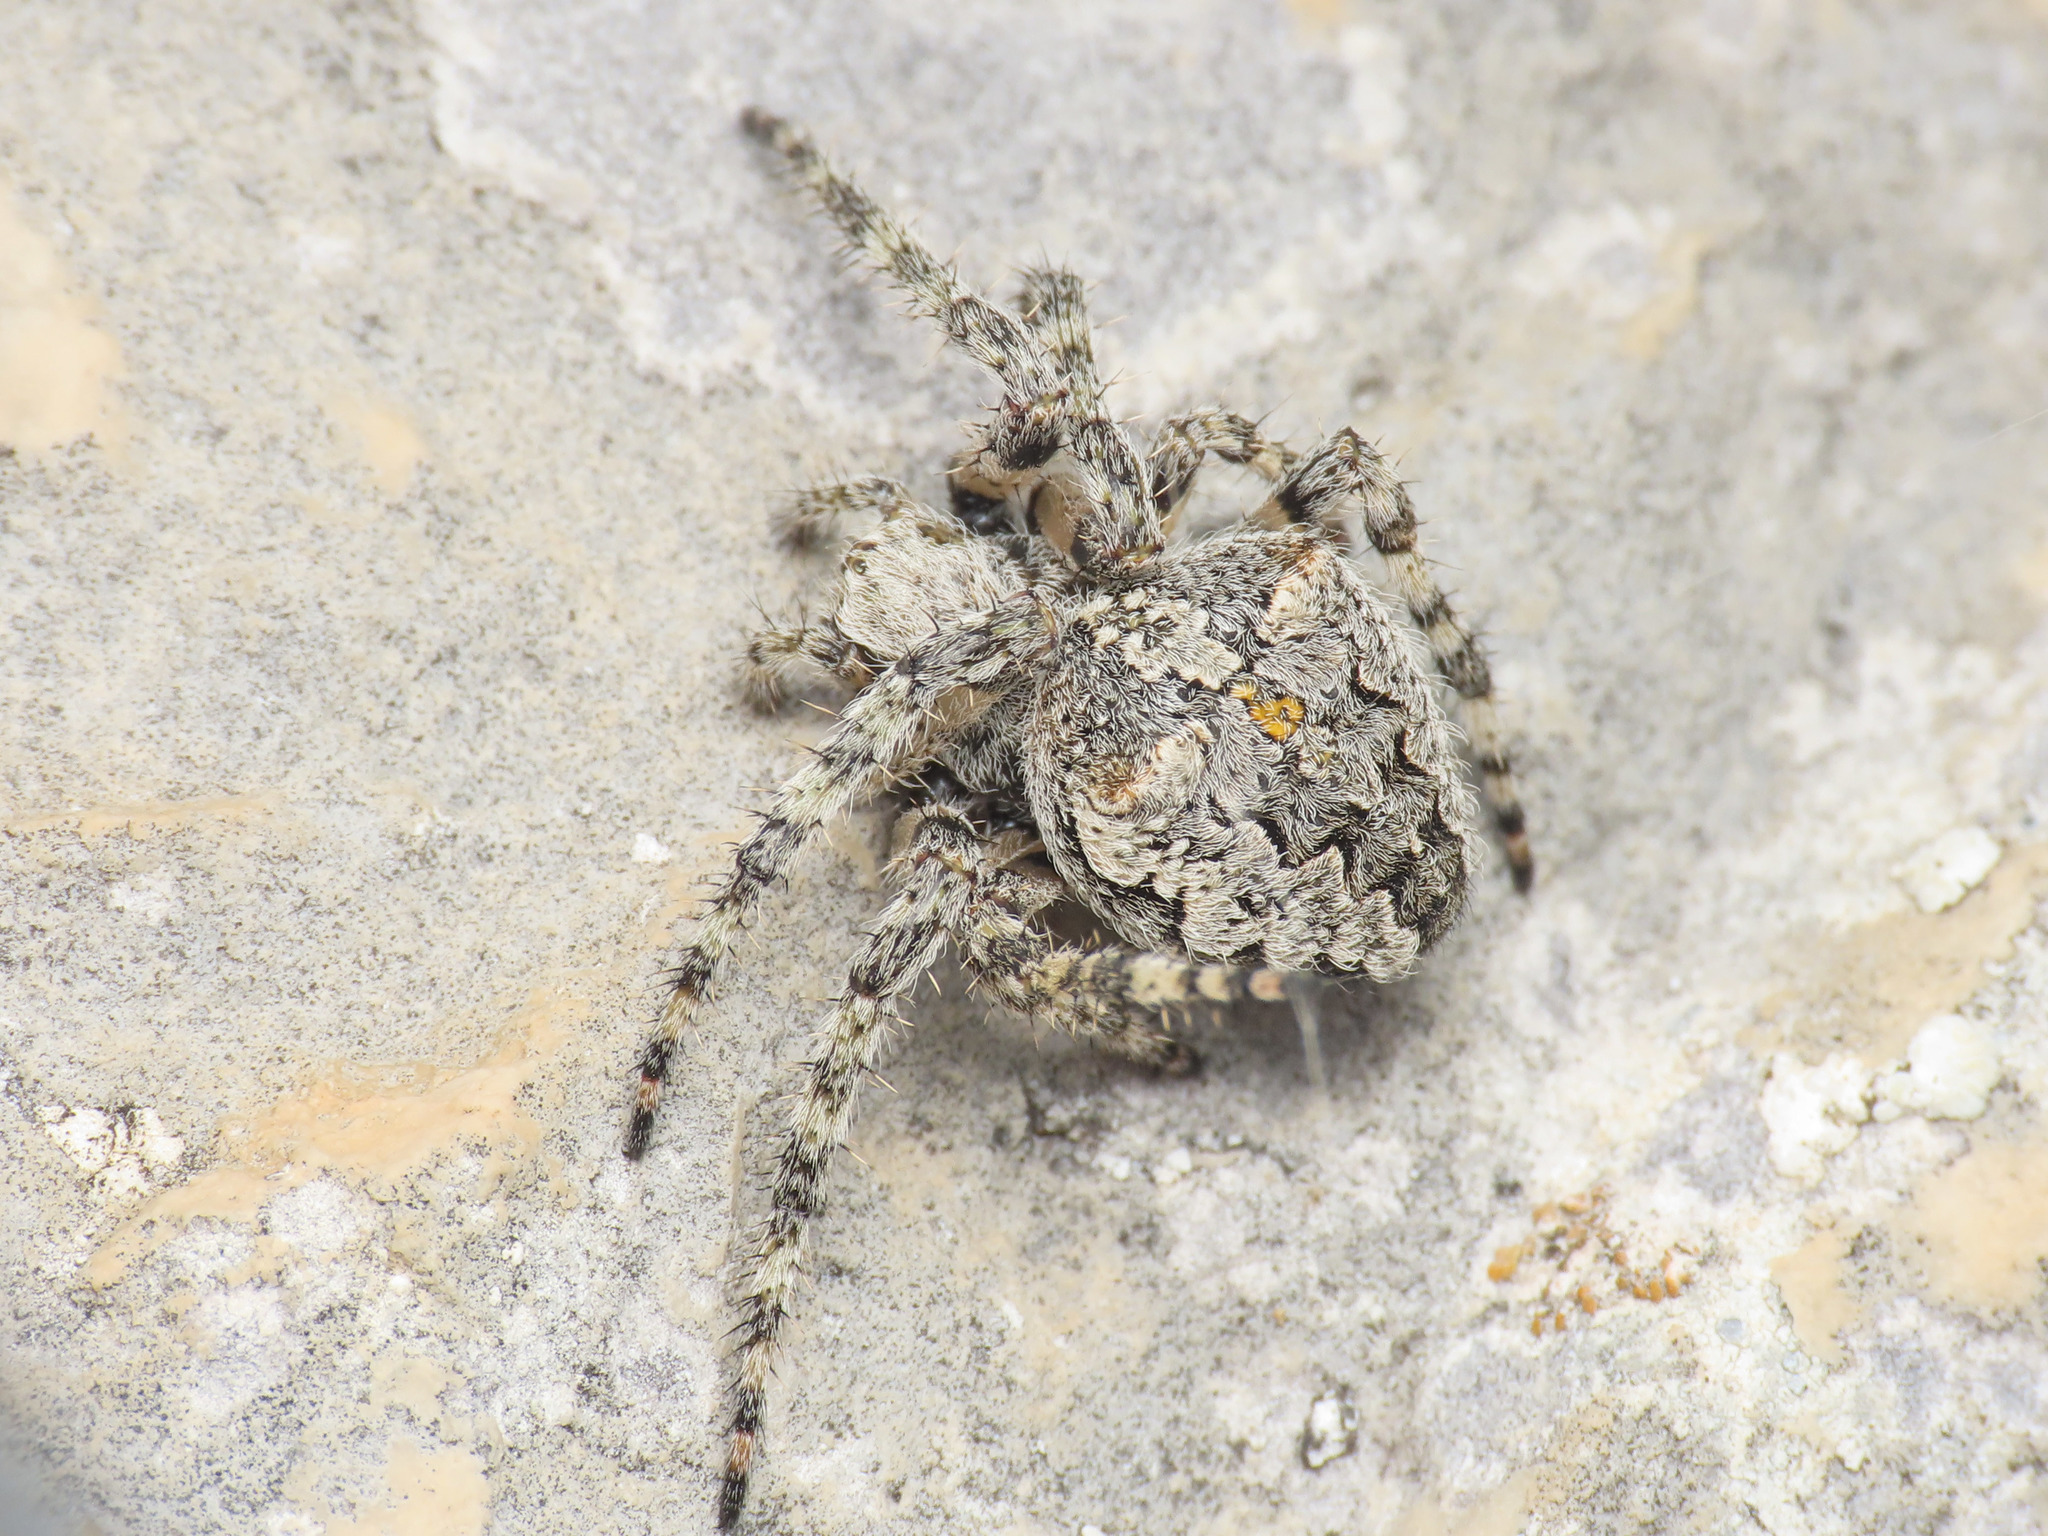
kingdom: Animalia
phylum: Arthropoda
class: Arachnida
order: Araneae
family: Araneidae
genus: Araneus
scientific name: Araneus circe
